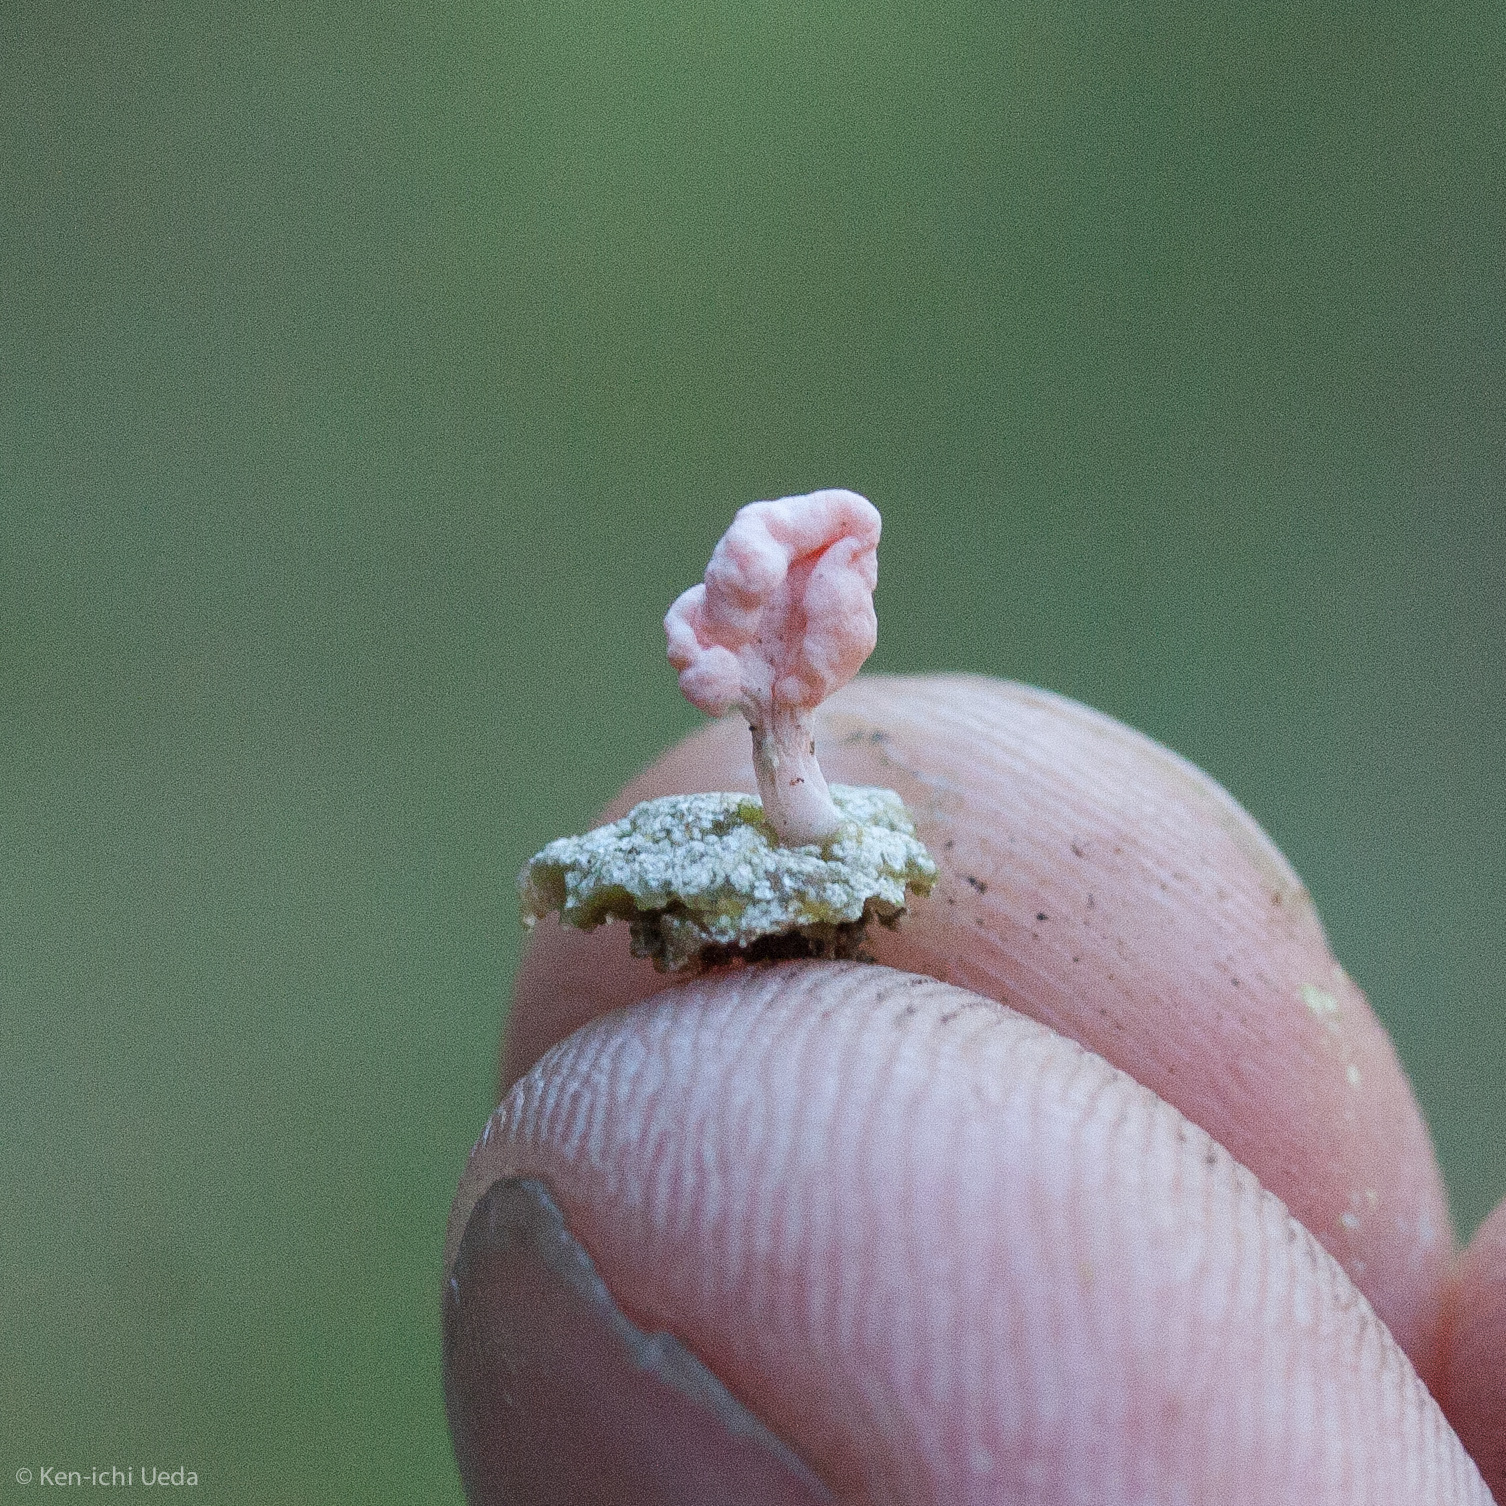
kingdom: Fungi
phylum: Ascomycota
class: Lecanoromycetes
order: Pertusariales
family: Icmadophilaceae
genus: Dibaeis
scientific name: Dibaeis baeomyces
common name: Pink earth lichen
